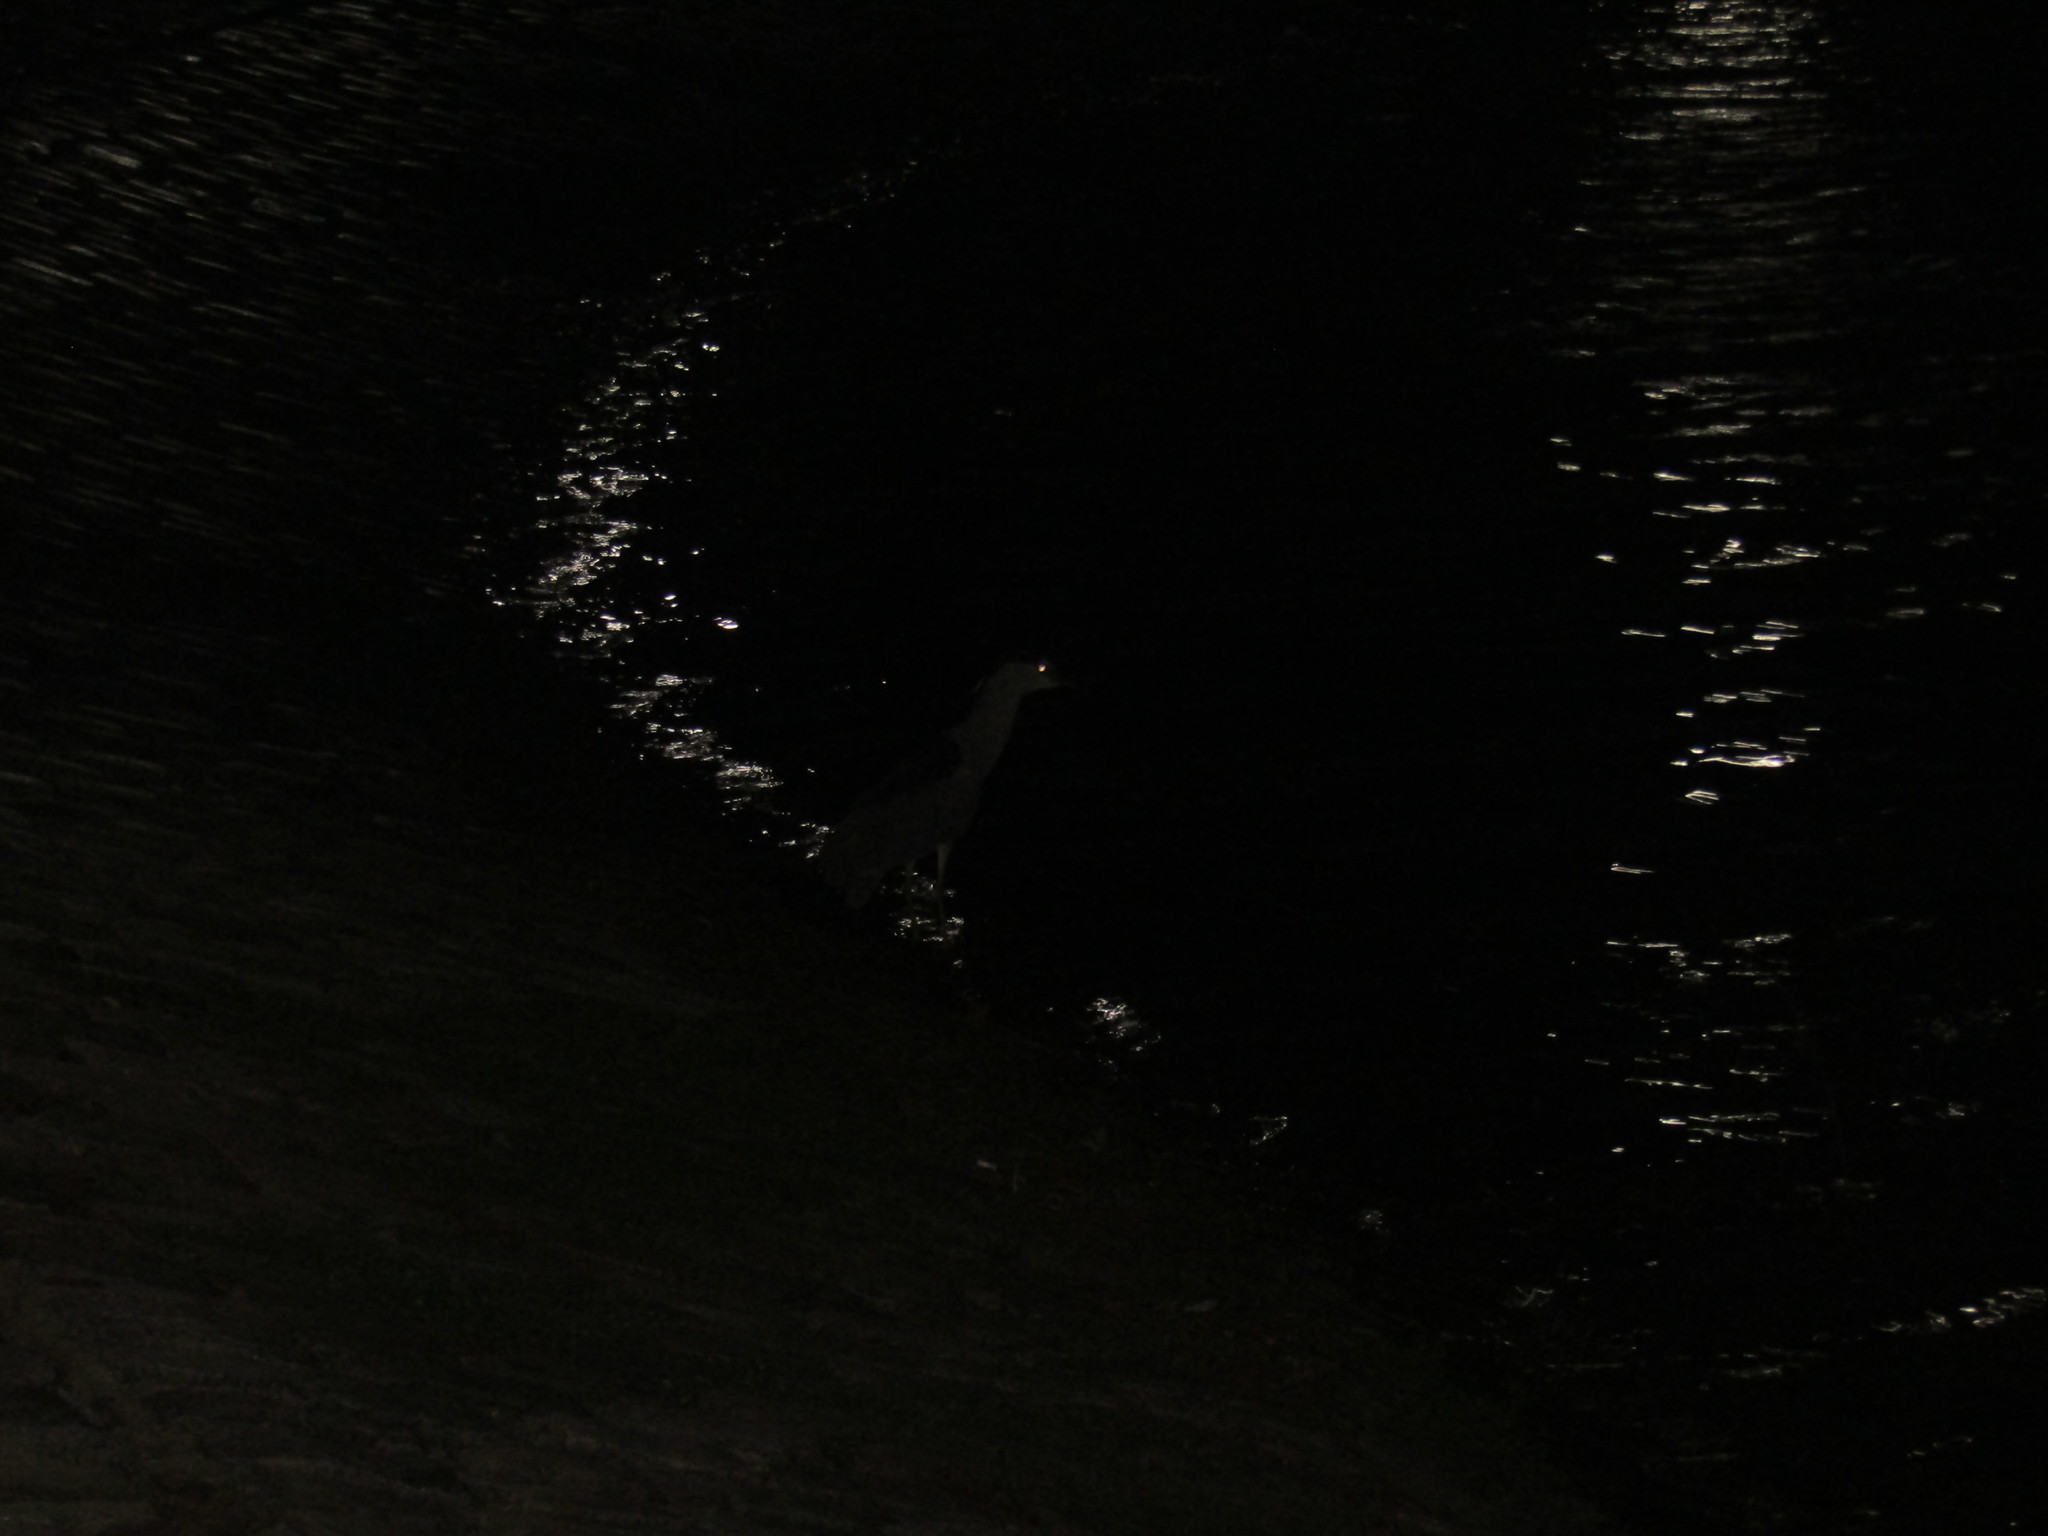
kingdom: Animalia
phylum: Chordata
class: Aves
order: Pelecaniformes
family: Ardeidae
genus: Nycticorax
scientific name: Nycticorax nycticorax
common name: Black-crowned night heron
